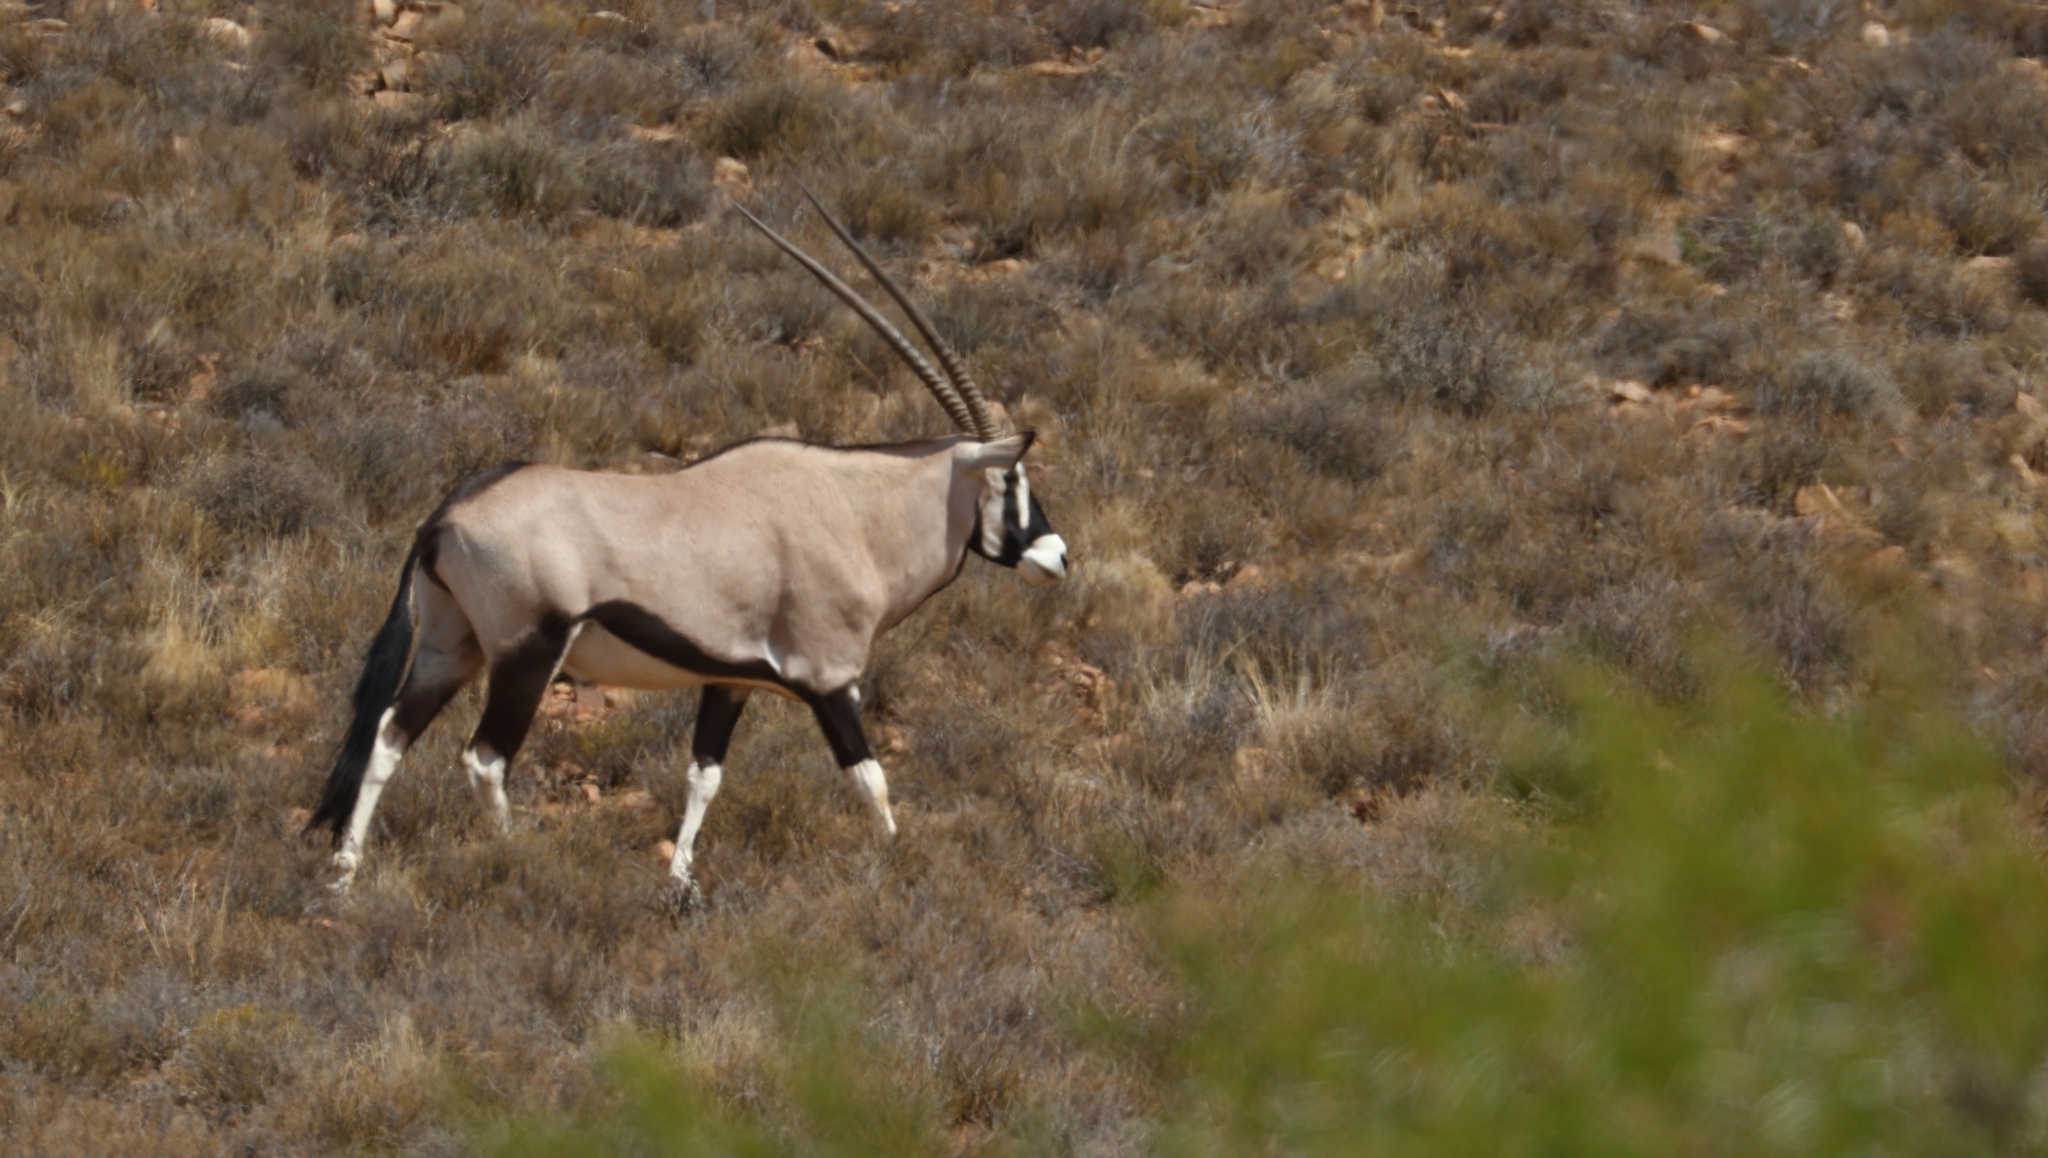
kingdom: Animalia
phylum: Chordata
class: Mammalia
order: Artiodactyla
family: Bovidae
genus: Oryx
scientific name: Oryx gazella
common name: Gemsbok
